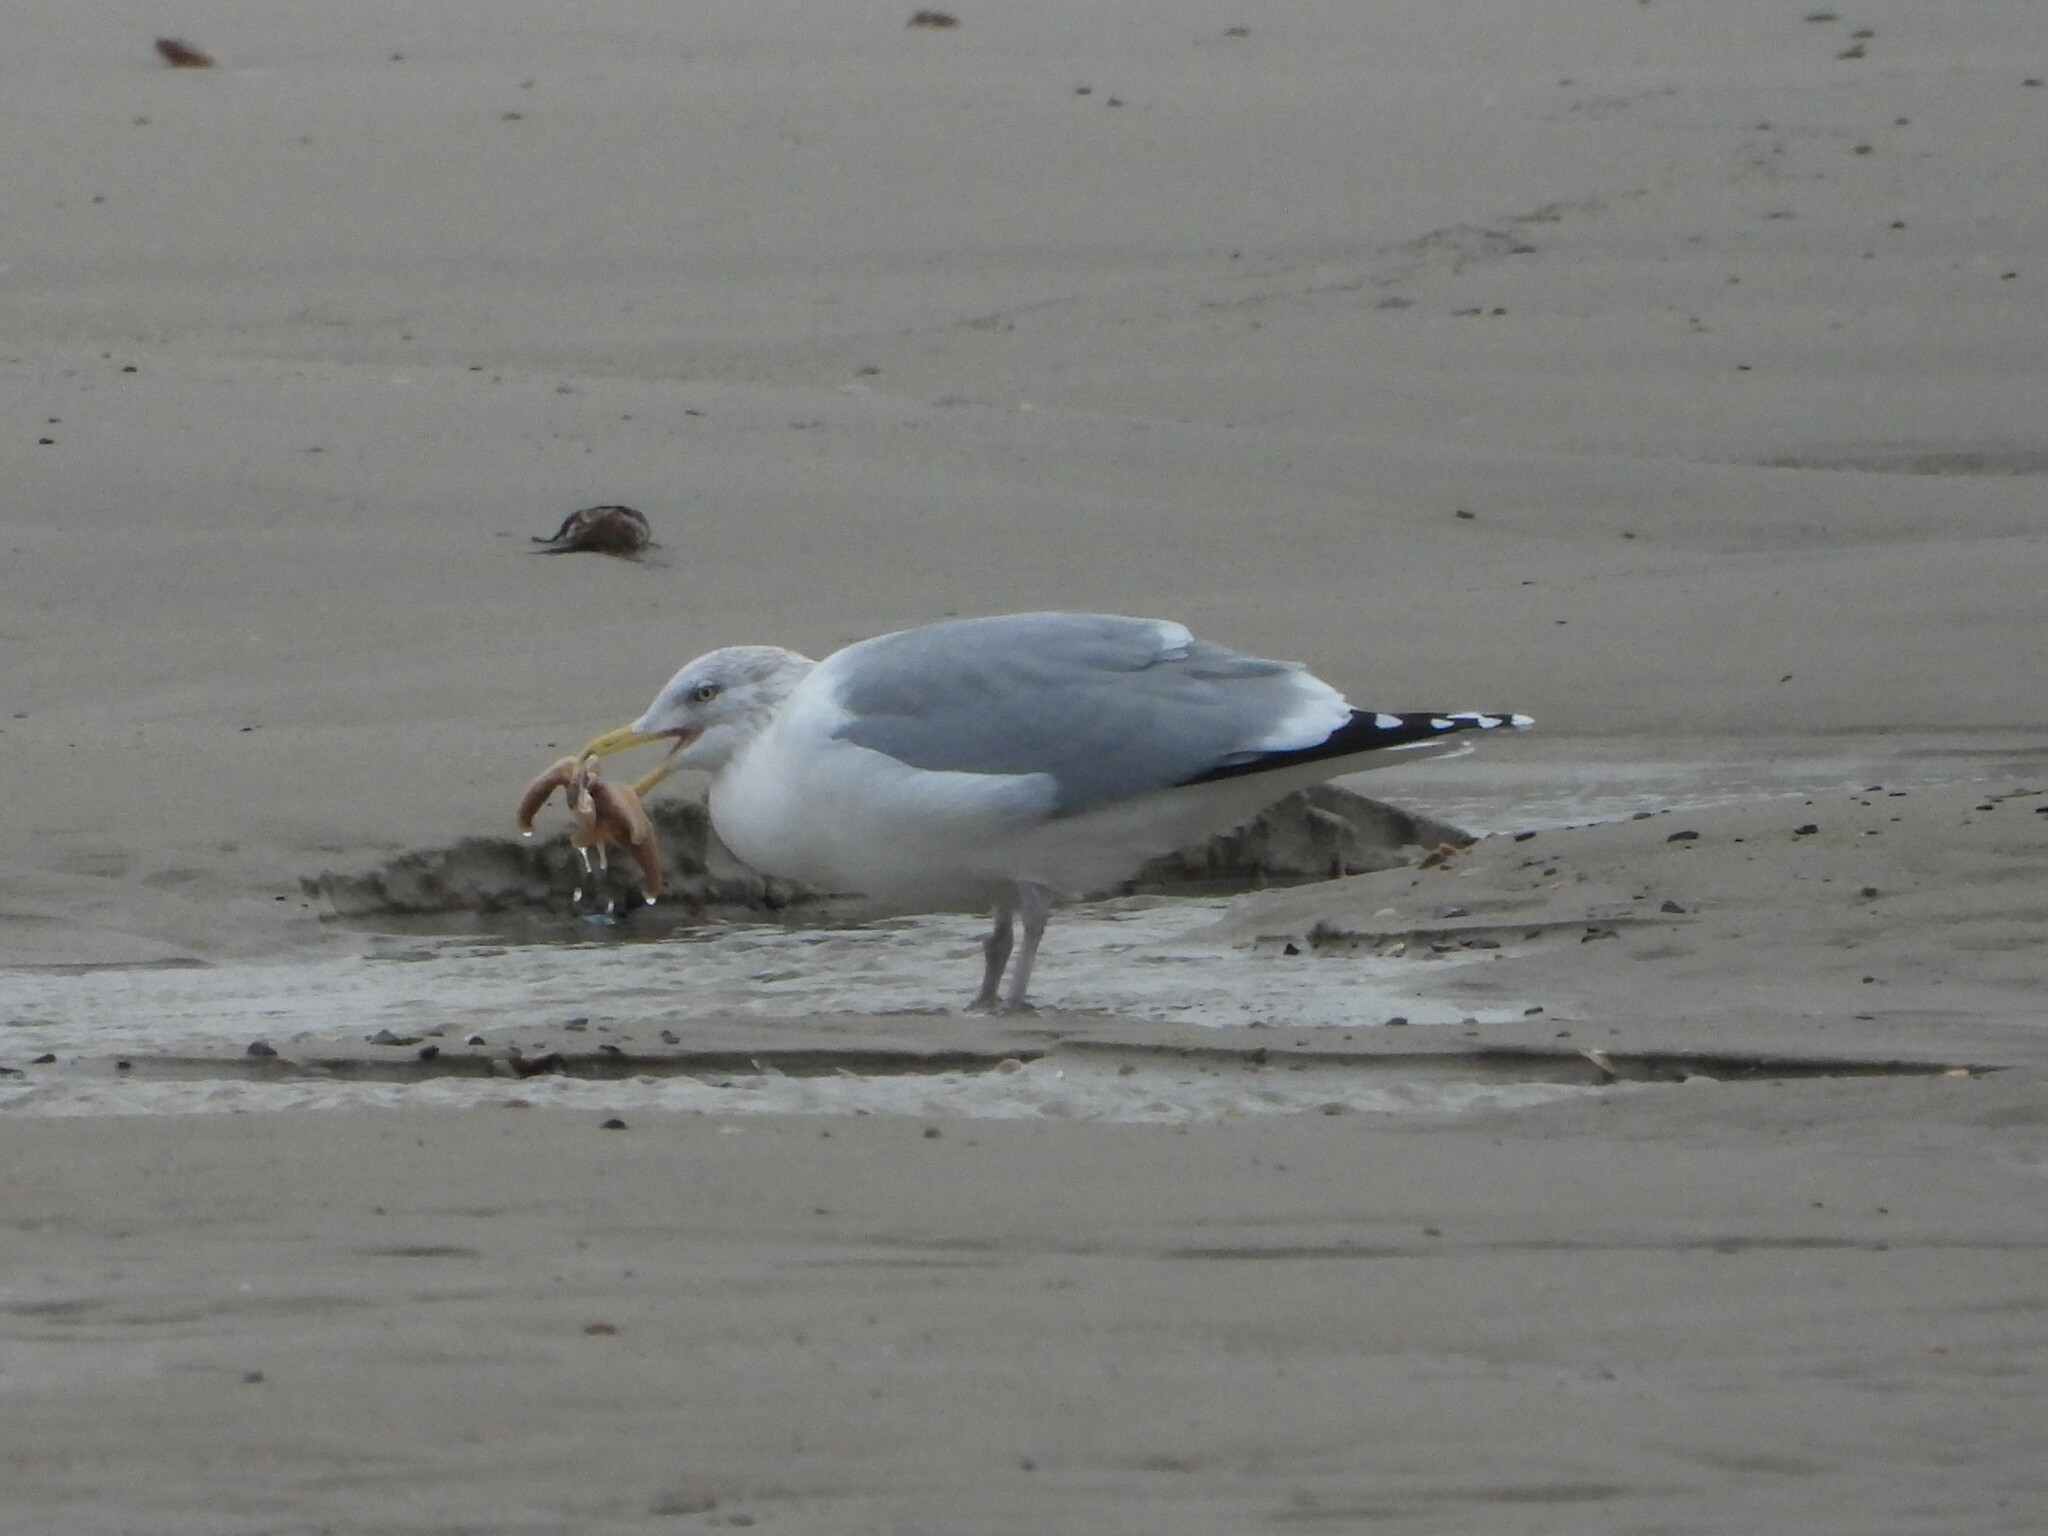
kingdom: Animalia
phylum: Chordata
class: Aves
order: Charadriiformes
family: Laridae
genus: Larus
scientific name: Larus argentatus
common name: Herring gull
